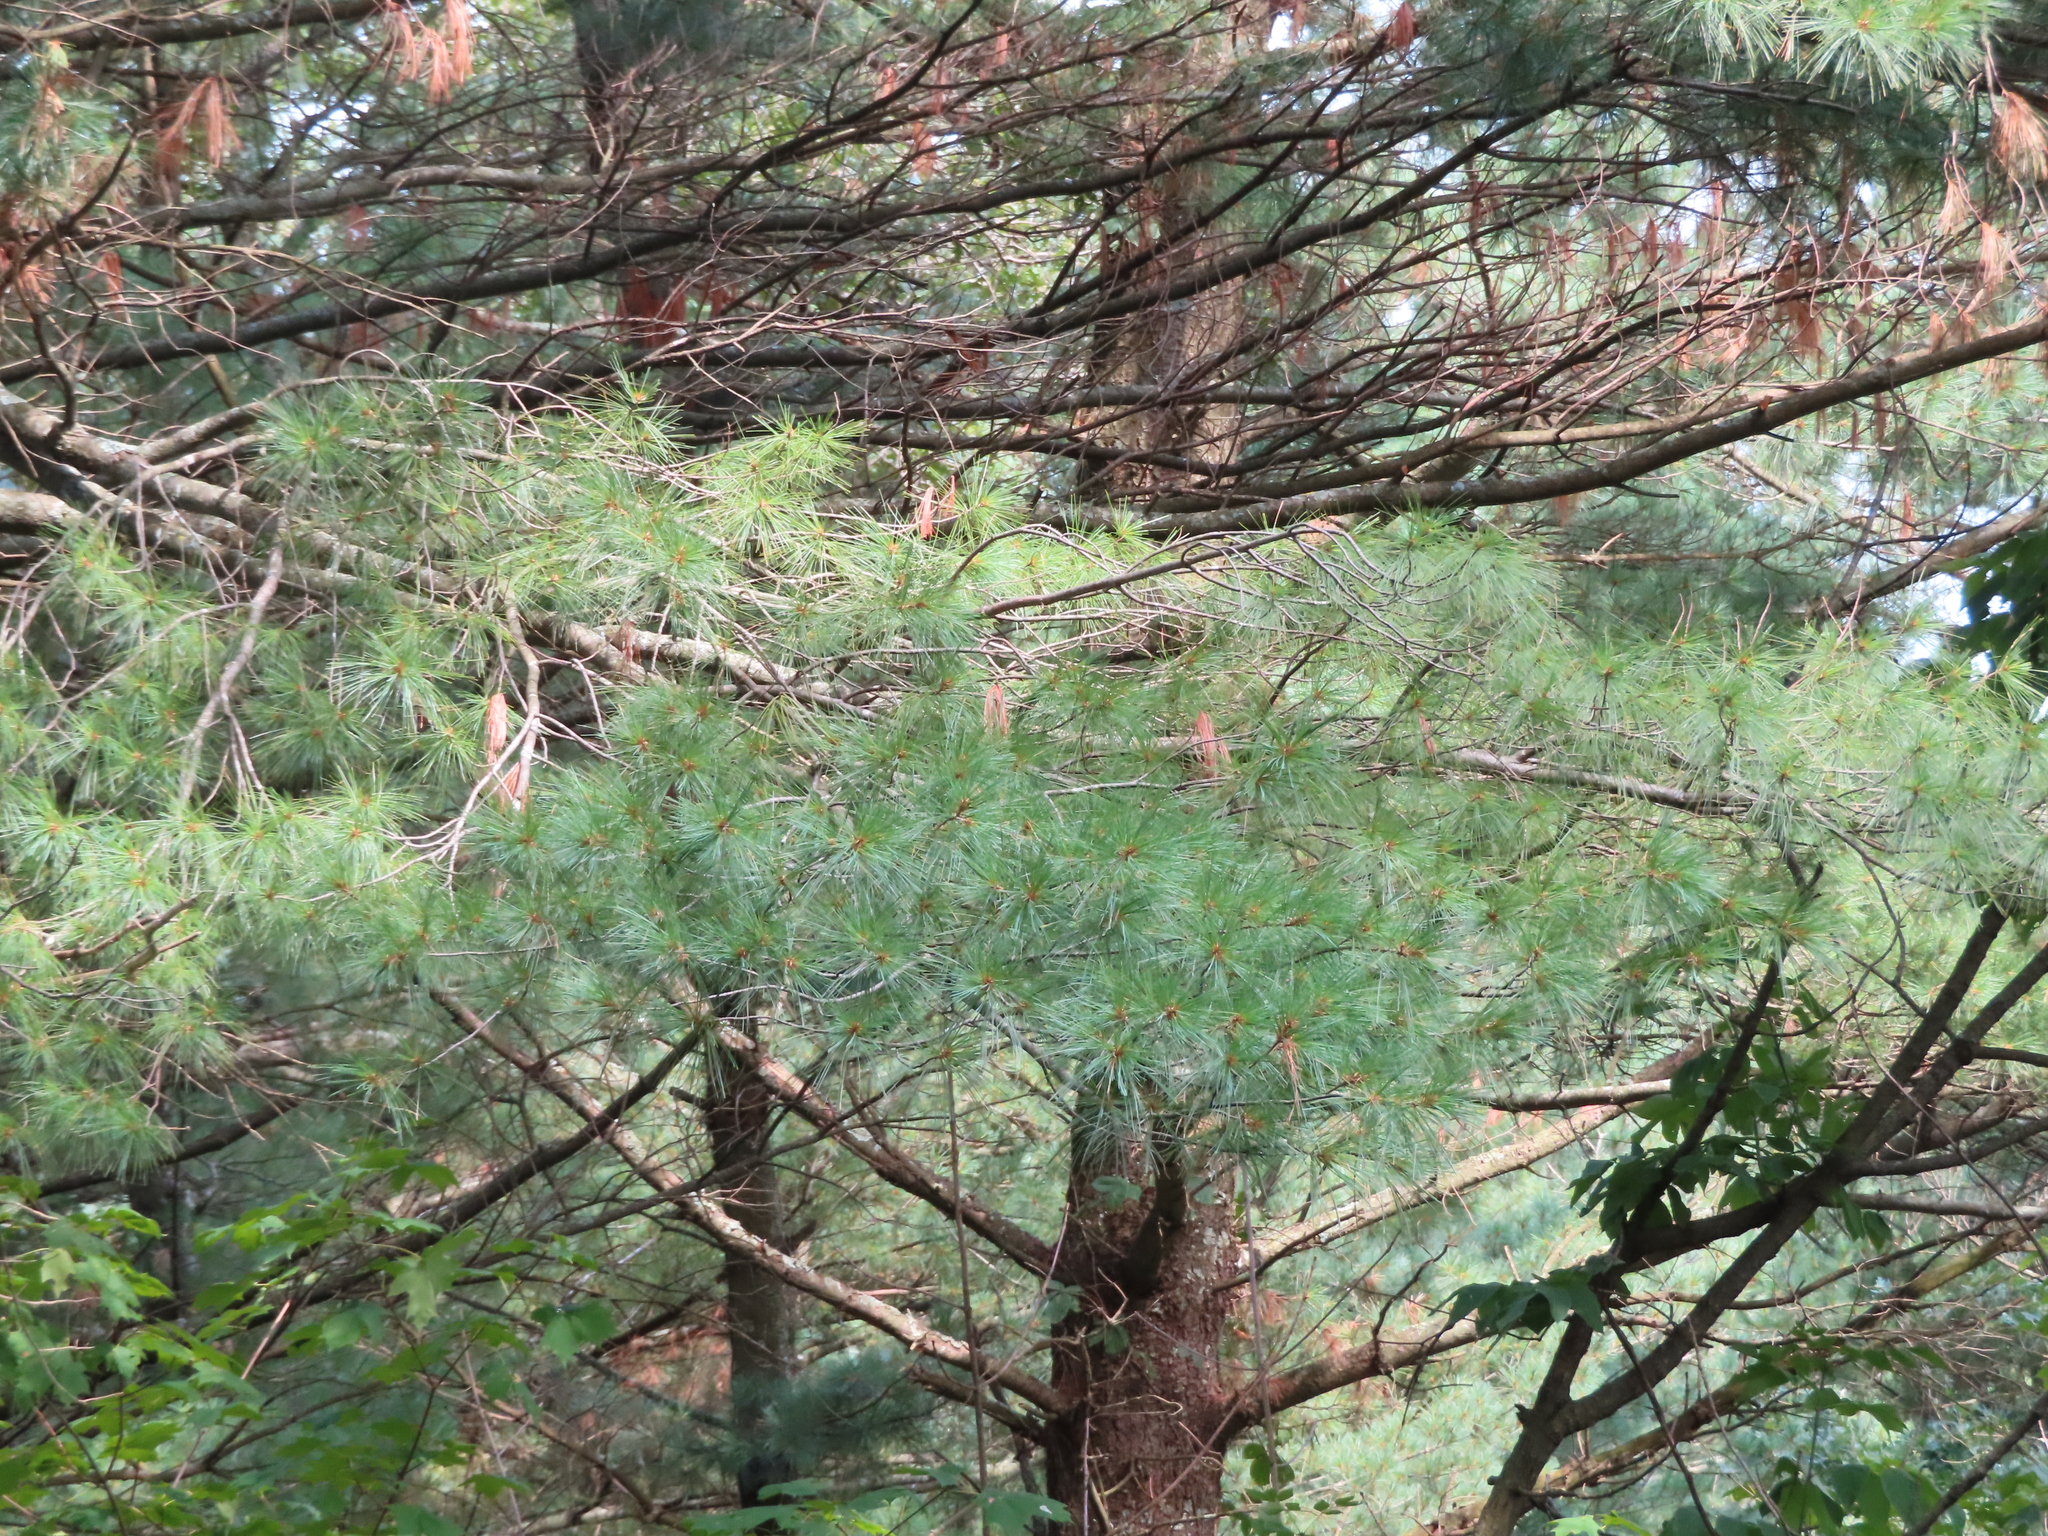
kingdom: Plantae
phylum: Tracheophyta
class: Pinopsida
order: Pinales
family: Pinaceae
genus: Pinus
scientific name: Pinus strobus
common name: Weymouth pine
